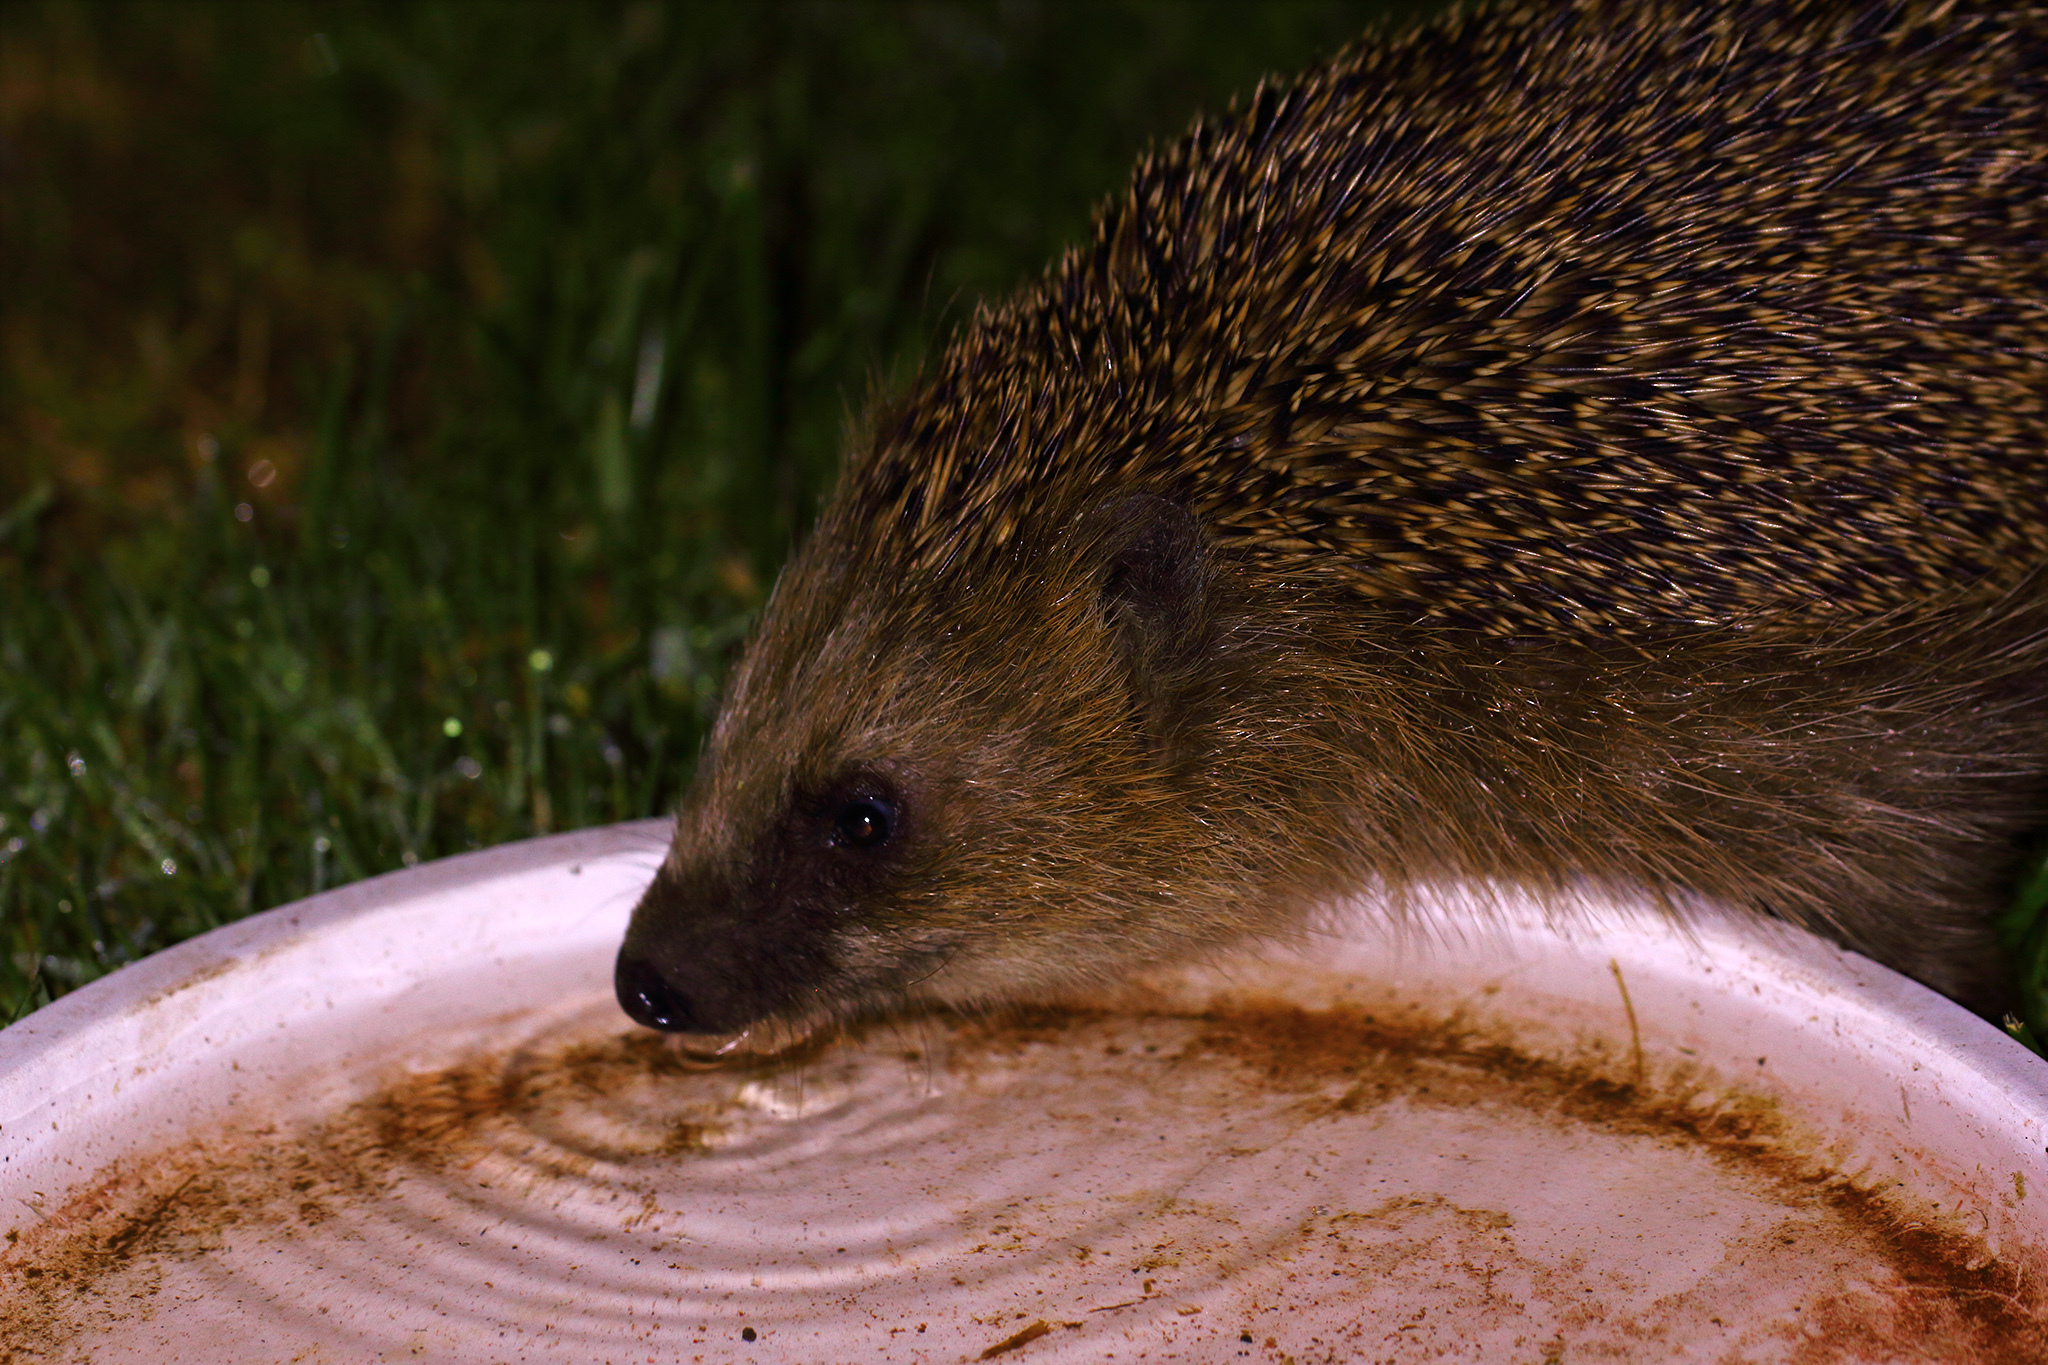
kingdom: Animalia
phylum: Chordata
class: Mammalia
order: Erinaceomorpha
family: Erinaceidae
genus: Erinaceus
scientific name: Erinaceus europaeus
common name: West european hedgehog
